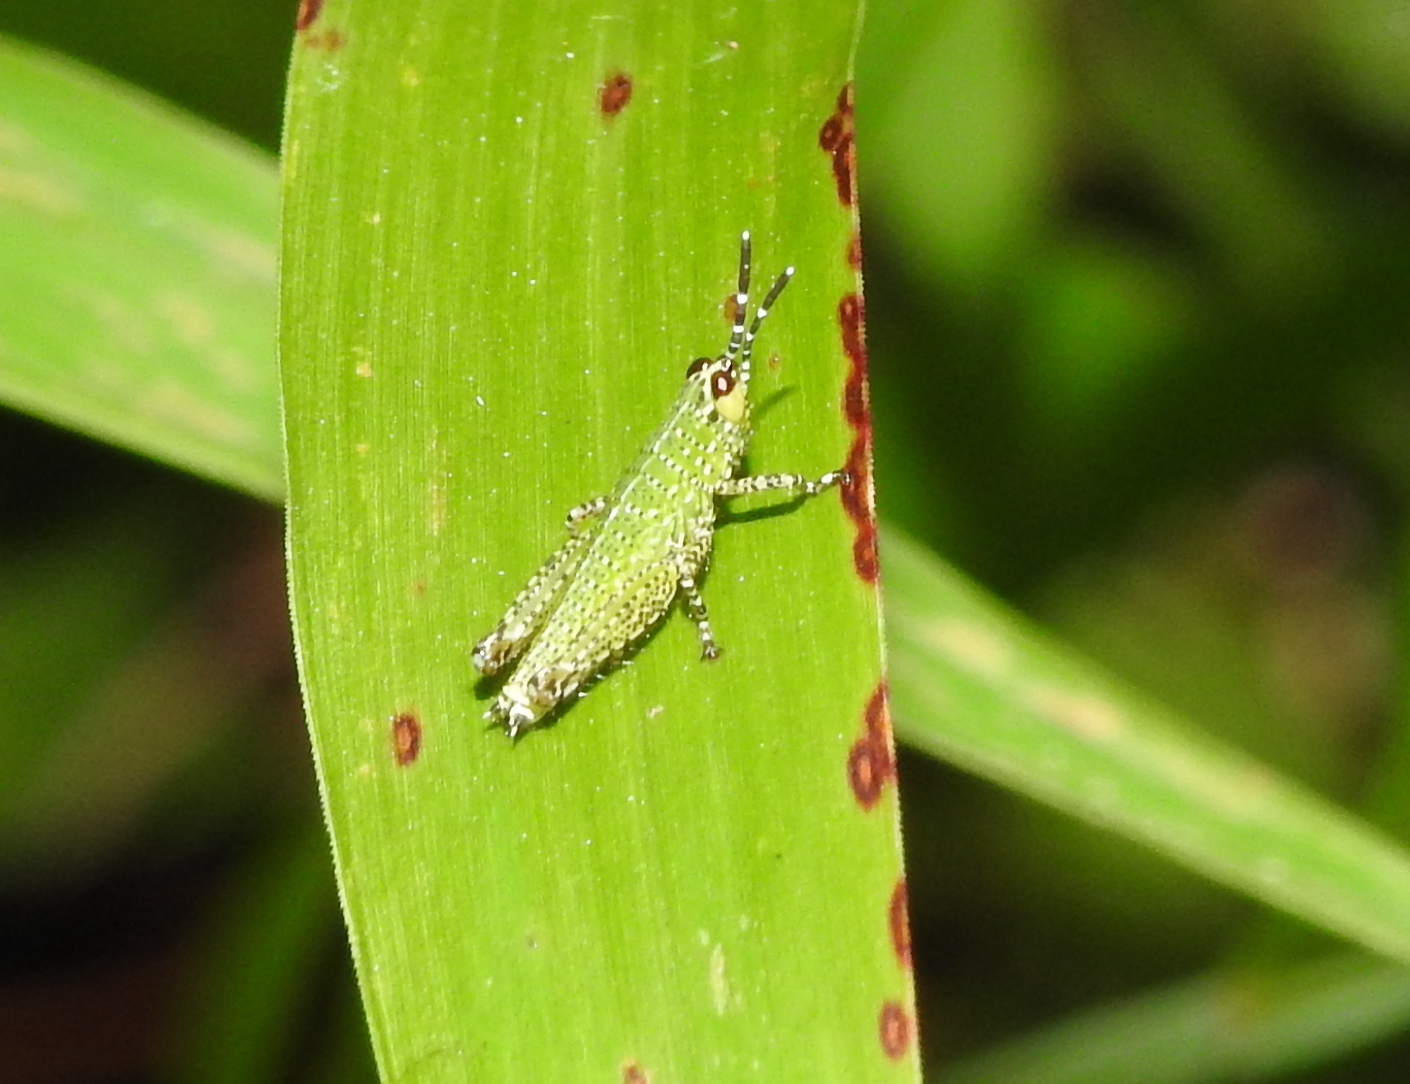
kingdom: Animalia
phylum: Arthropoda
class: Insecta
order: Orthoptera
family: Acrididae
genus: Xenocatantops
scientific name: Xenocatantops humile
